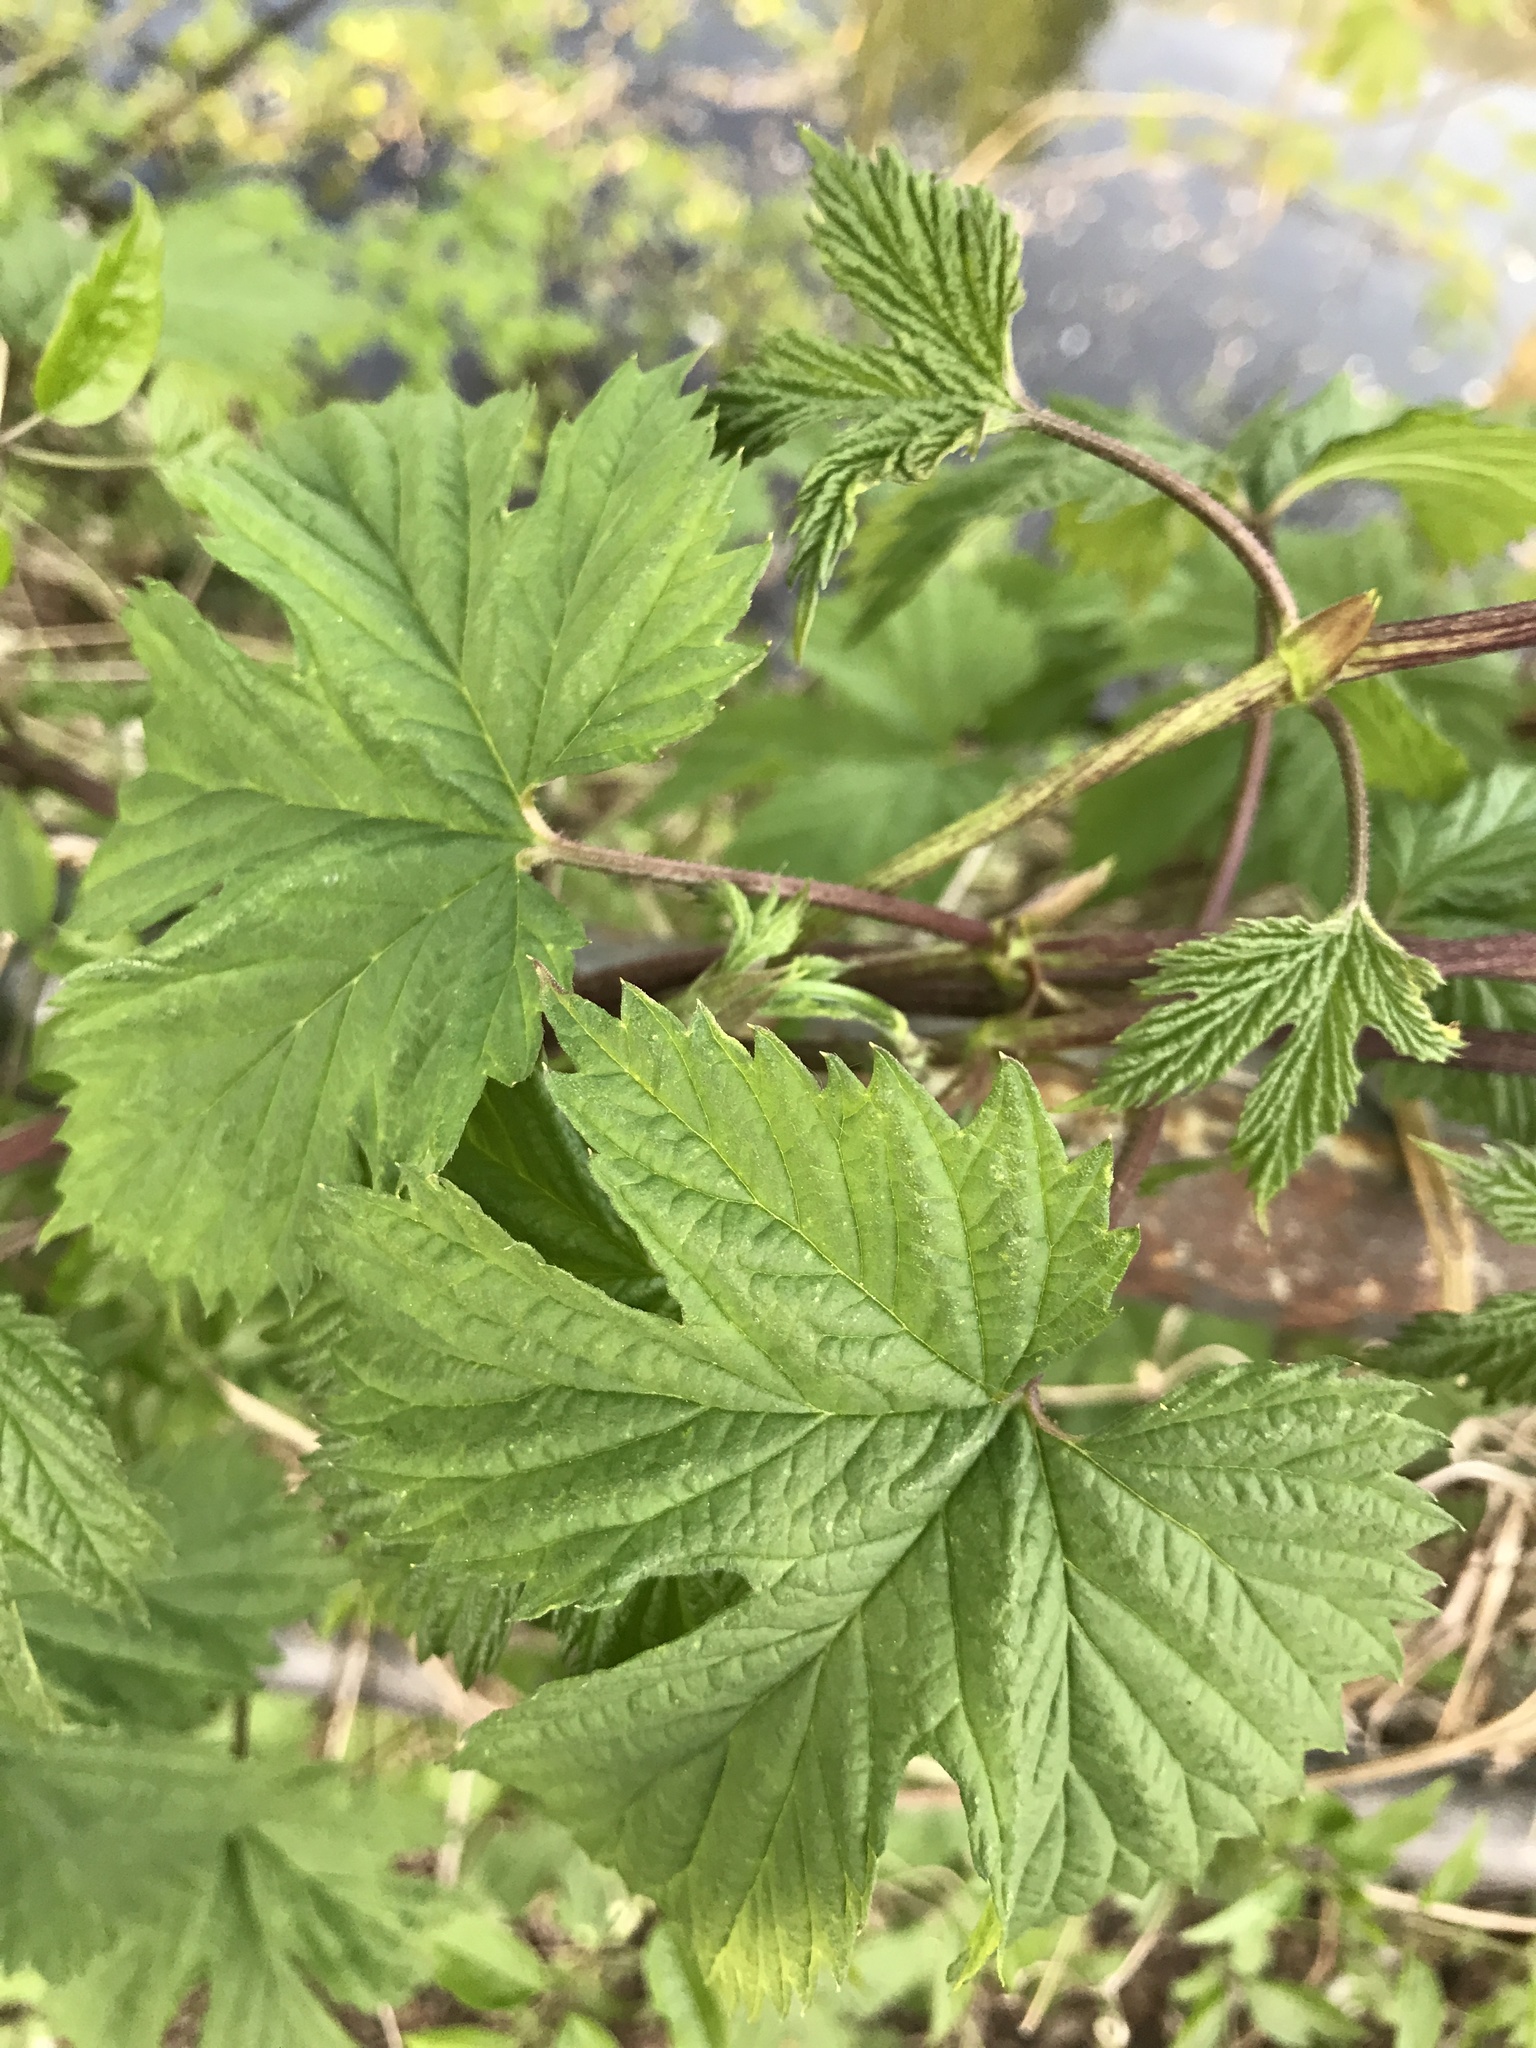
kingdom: Plantae
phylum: Tracheophyta
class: Magnoliopsida
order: Rosales
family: Cannabaceae
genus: Humulus
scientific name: Humulus lupulus
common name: Hop
